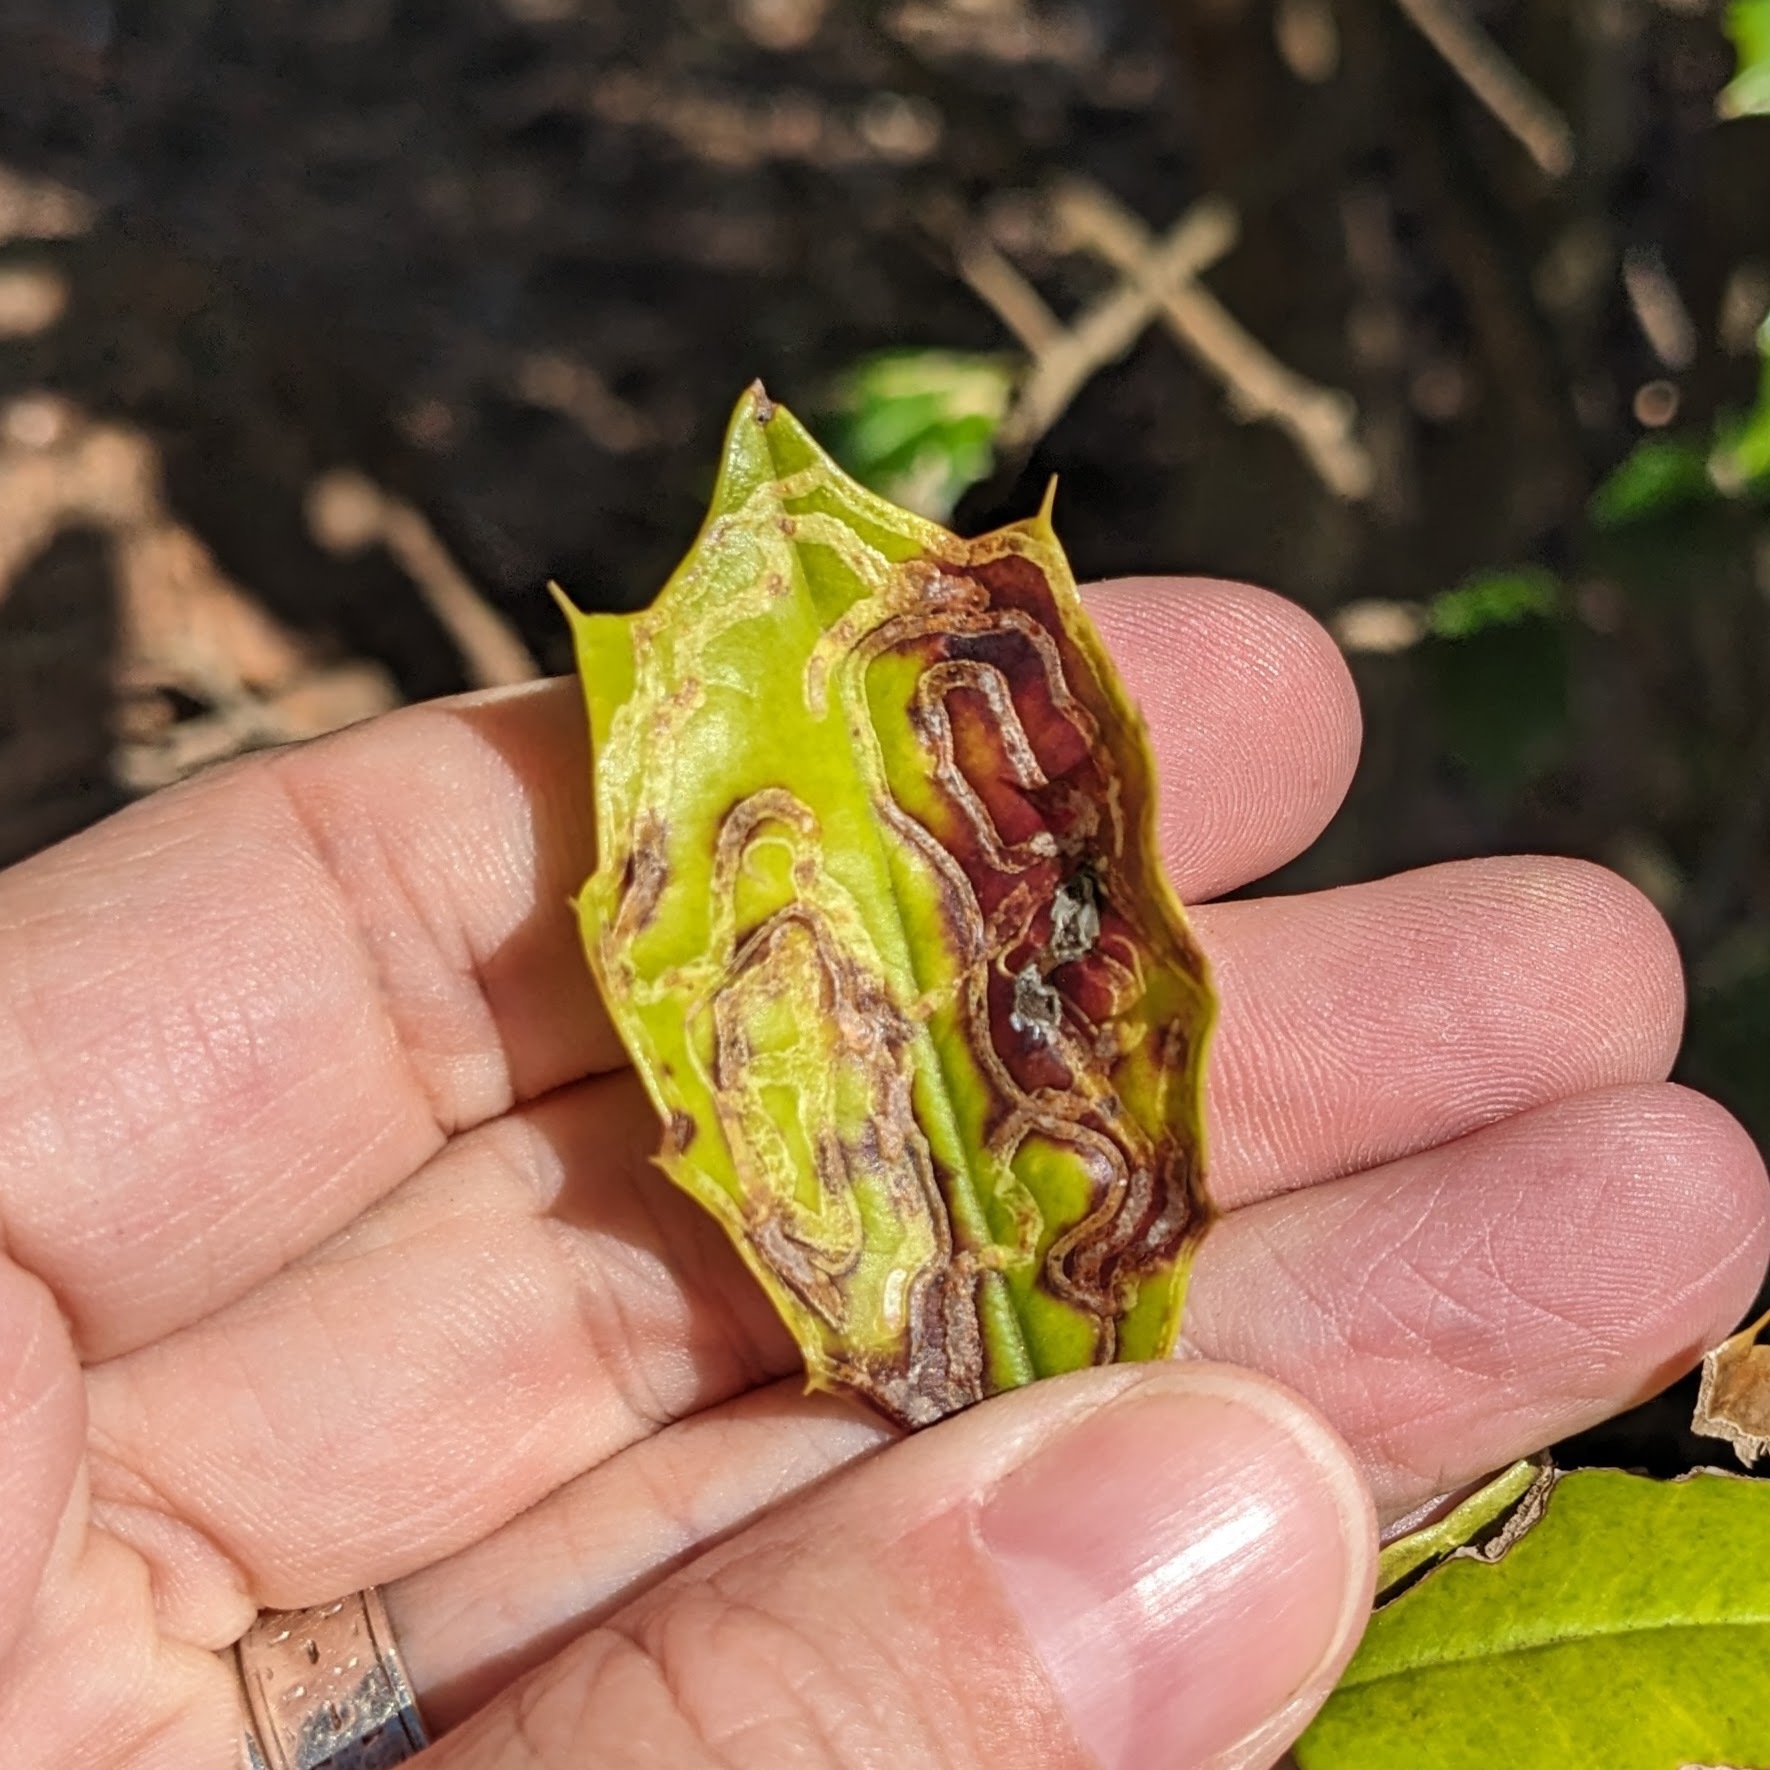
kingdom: Animalia
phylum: Arthropoda
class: Insecta
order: Diptera
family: Agromyzidae
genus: Phytomyza
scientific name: Phytomyza opacae
